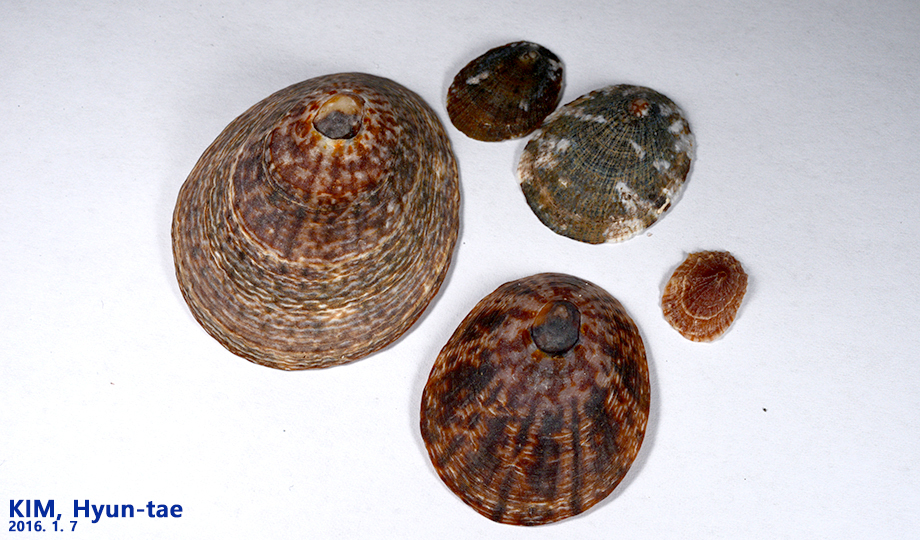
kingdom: Animalia
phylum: Mollusca
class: Gastropoda
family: Nacellidae
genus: Cellana
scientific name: Cellana toreuma
